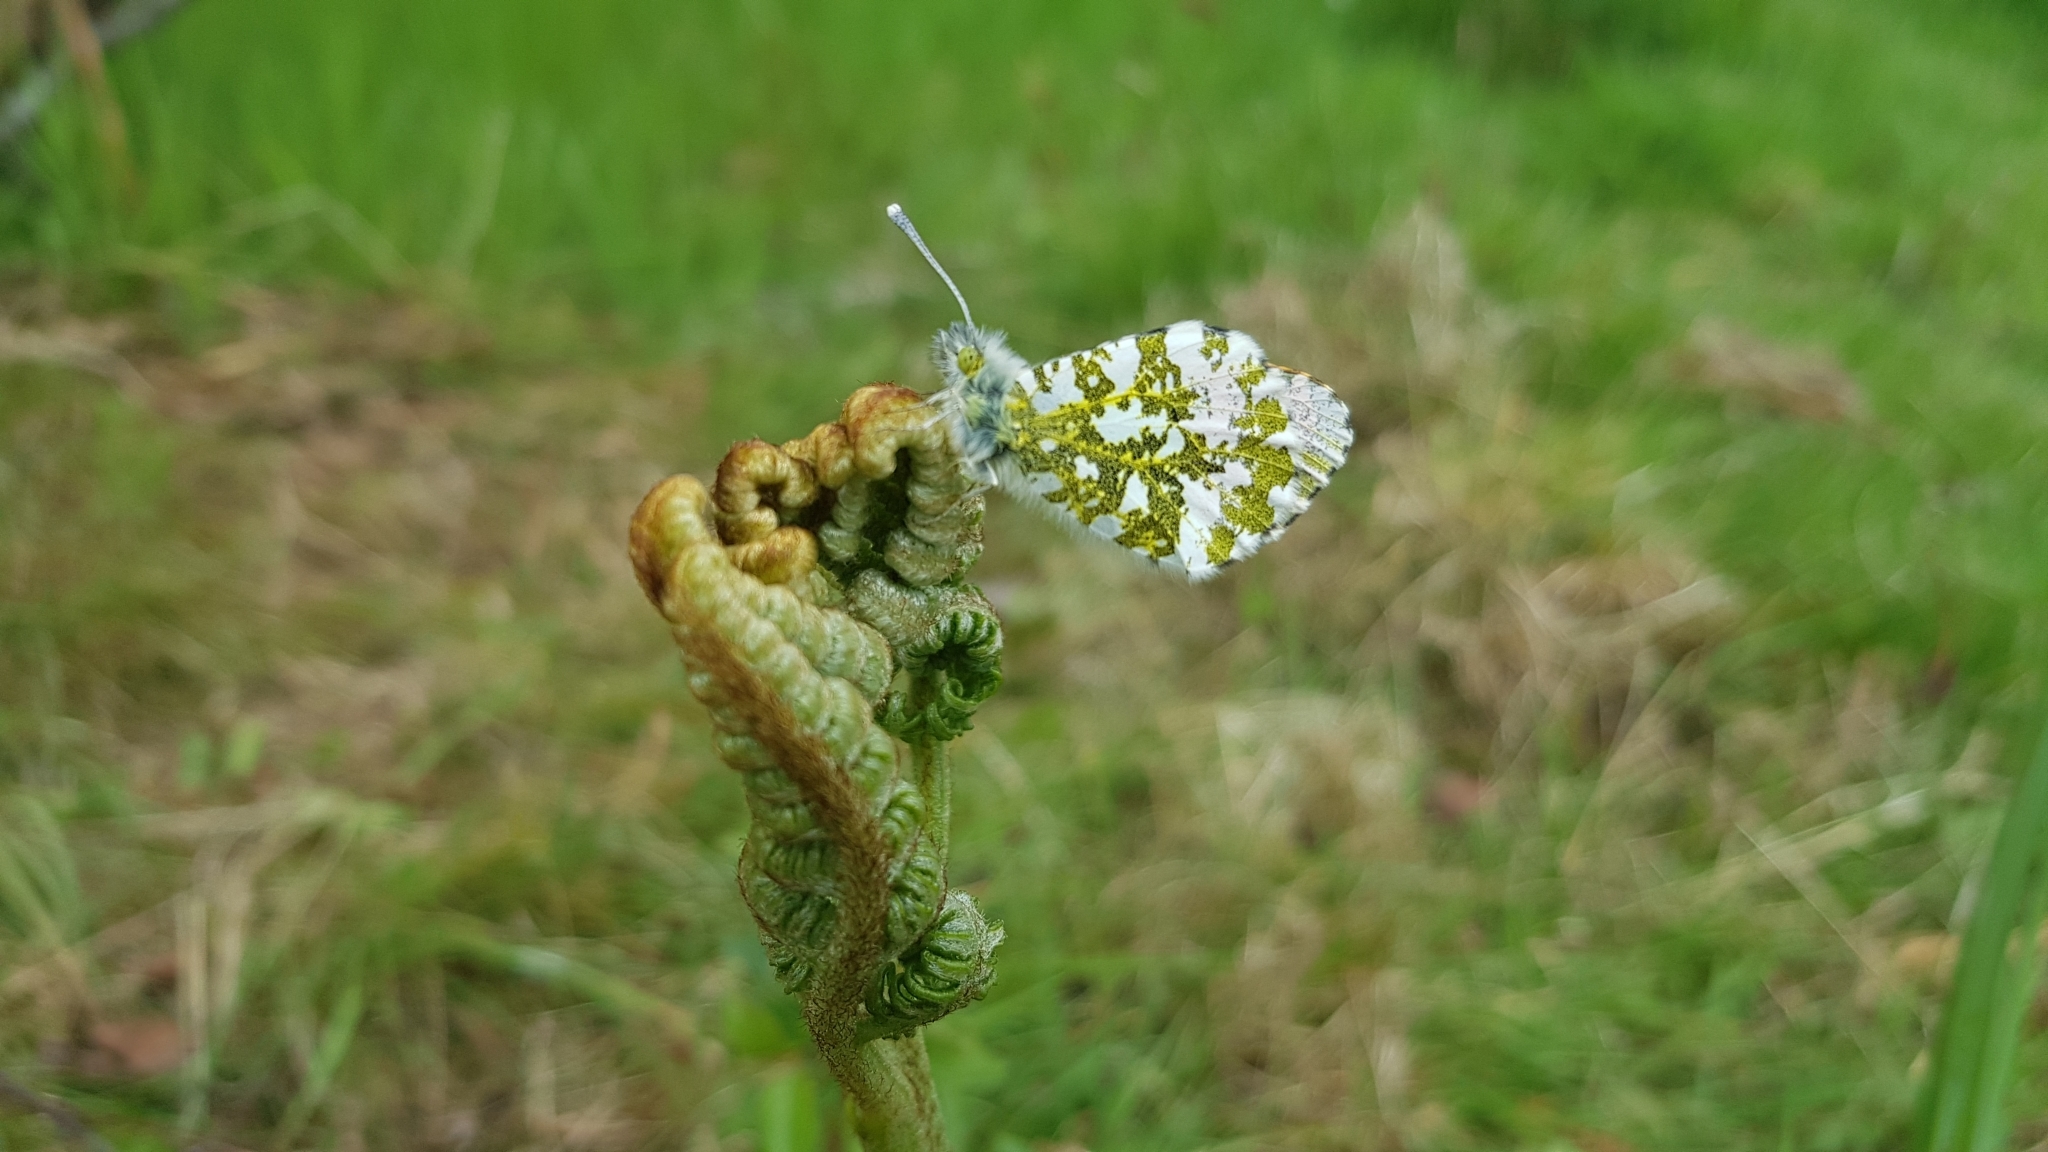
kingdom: Animalia
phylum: Arthropoda
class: Insecta
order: Lepidoptera
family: Pieridae
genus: Anthocharis
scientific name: Anthocharis cardamines
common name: Orange-tip
